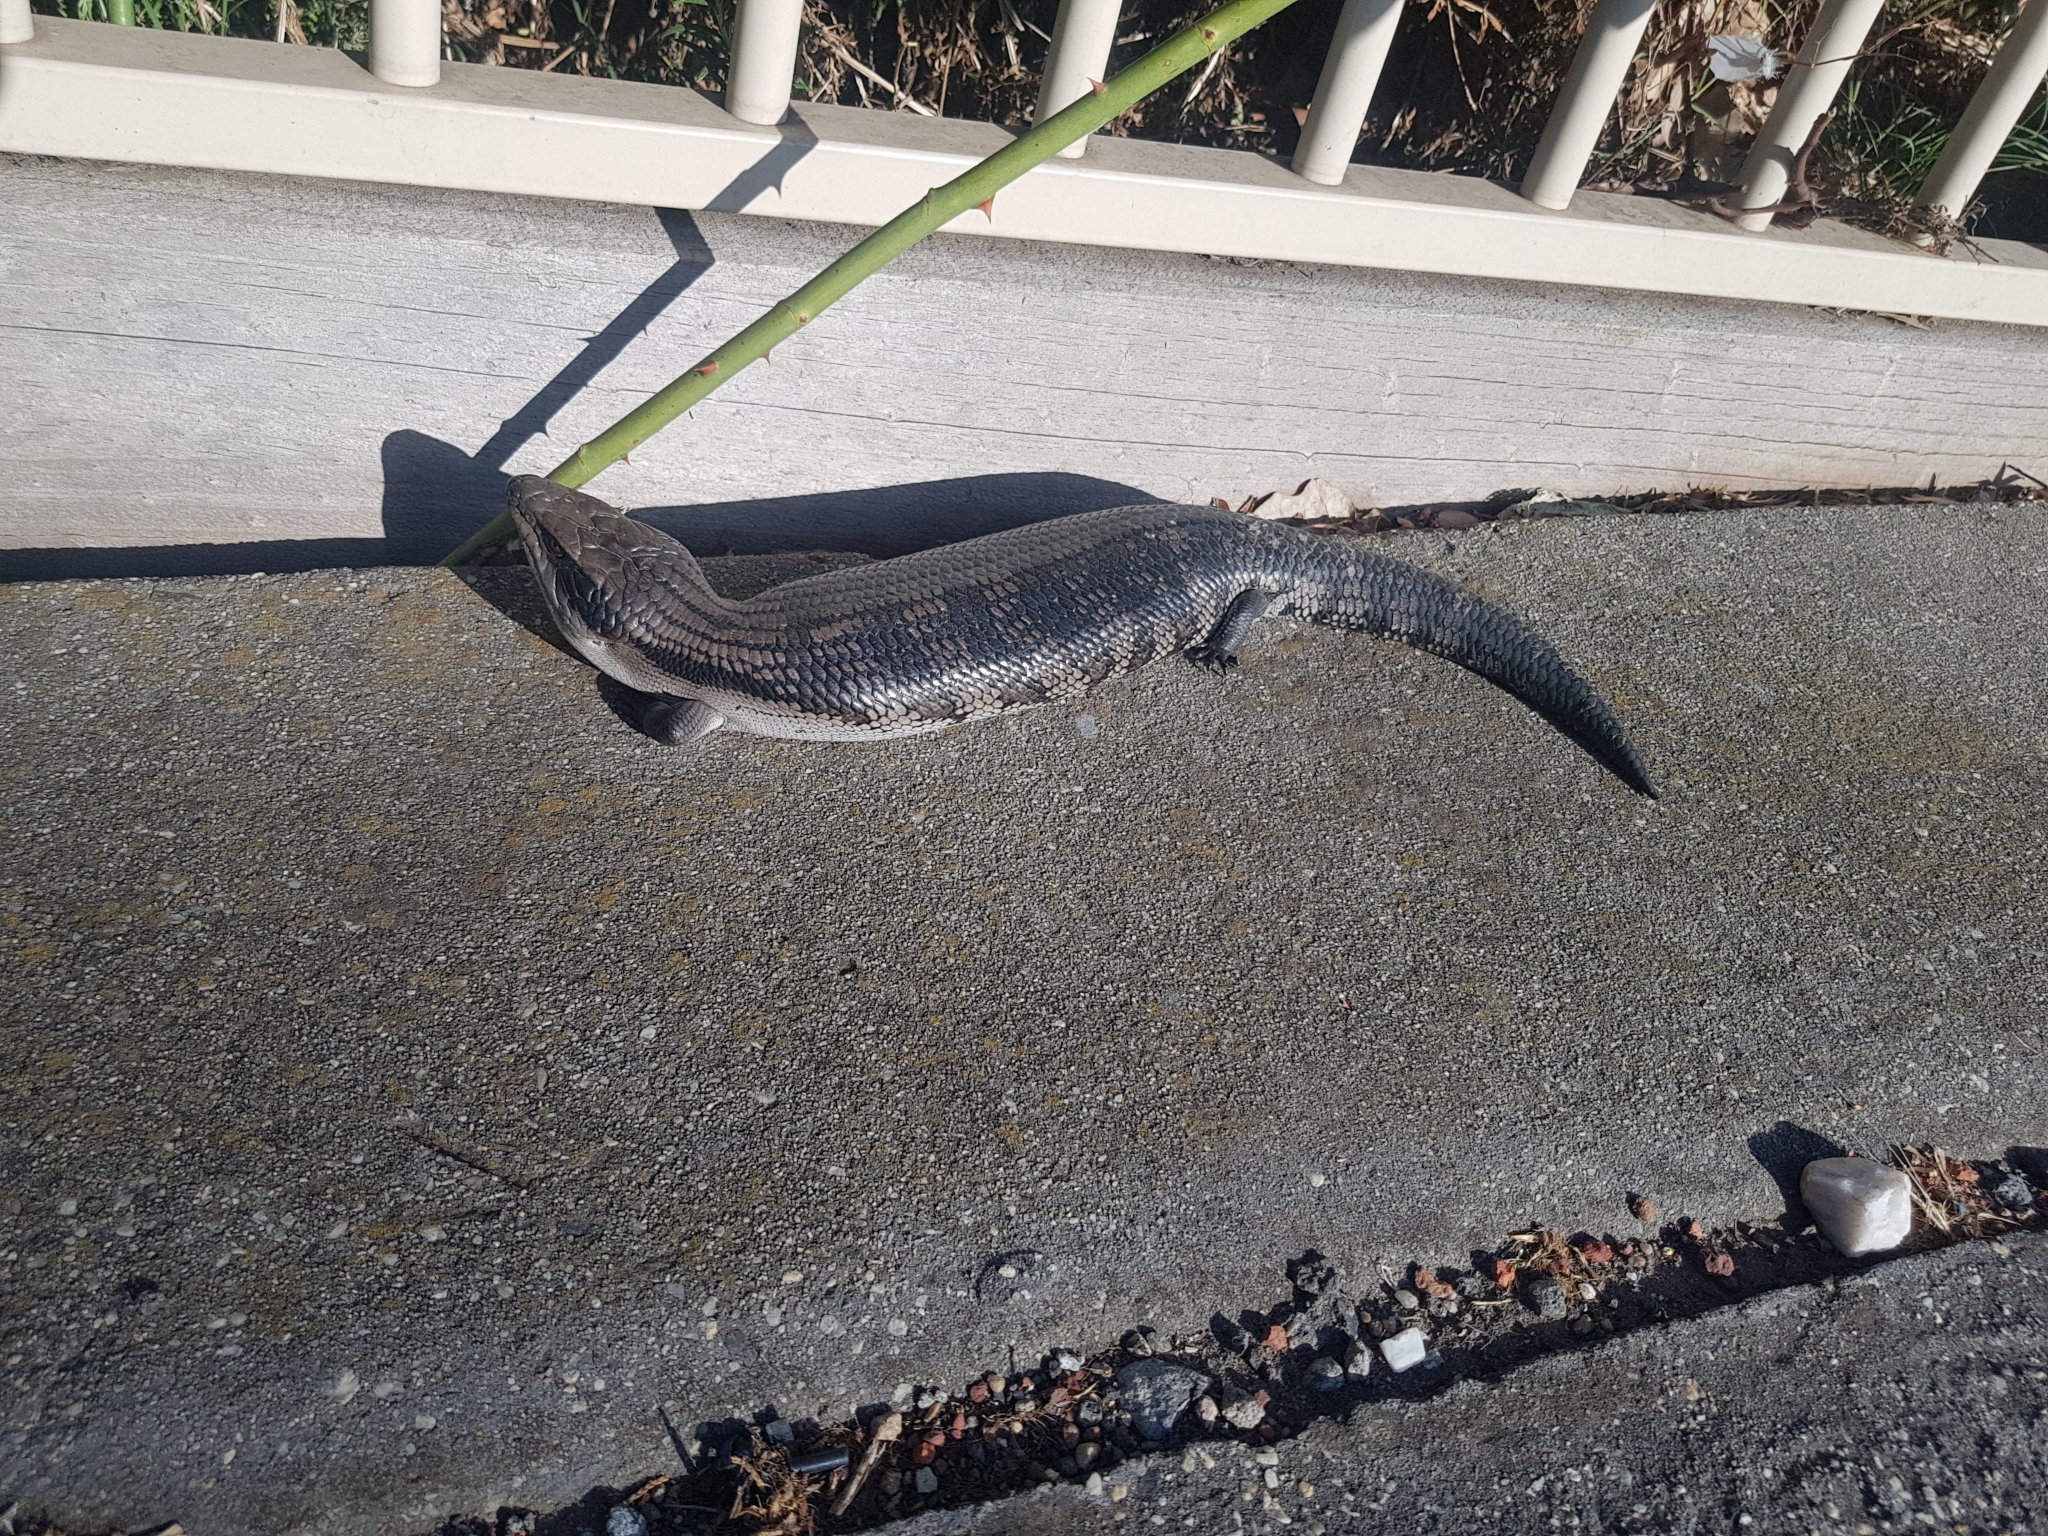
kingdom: Animalia
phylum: Chordata
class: Squamata
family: Scincidae
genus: Tiliqua
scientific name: Tiliqua scincoides
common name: Common bluetongue
